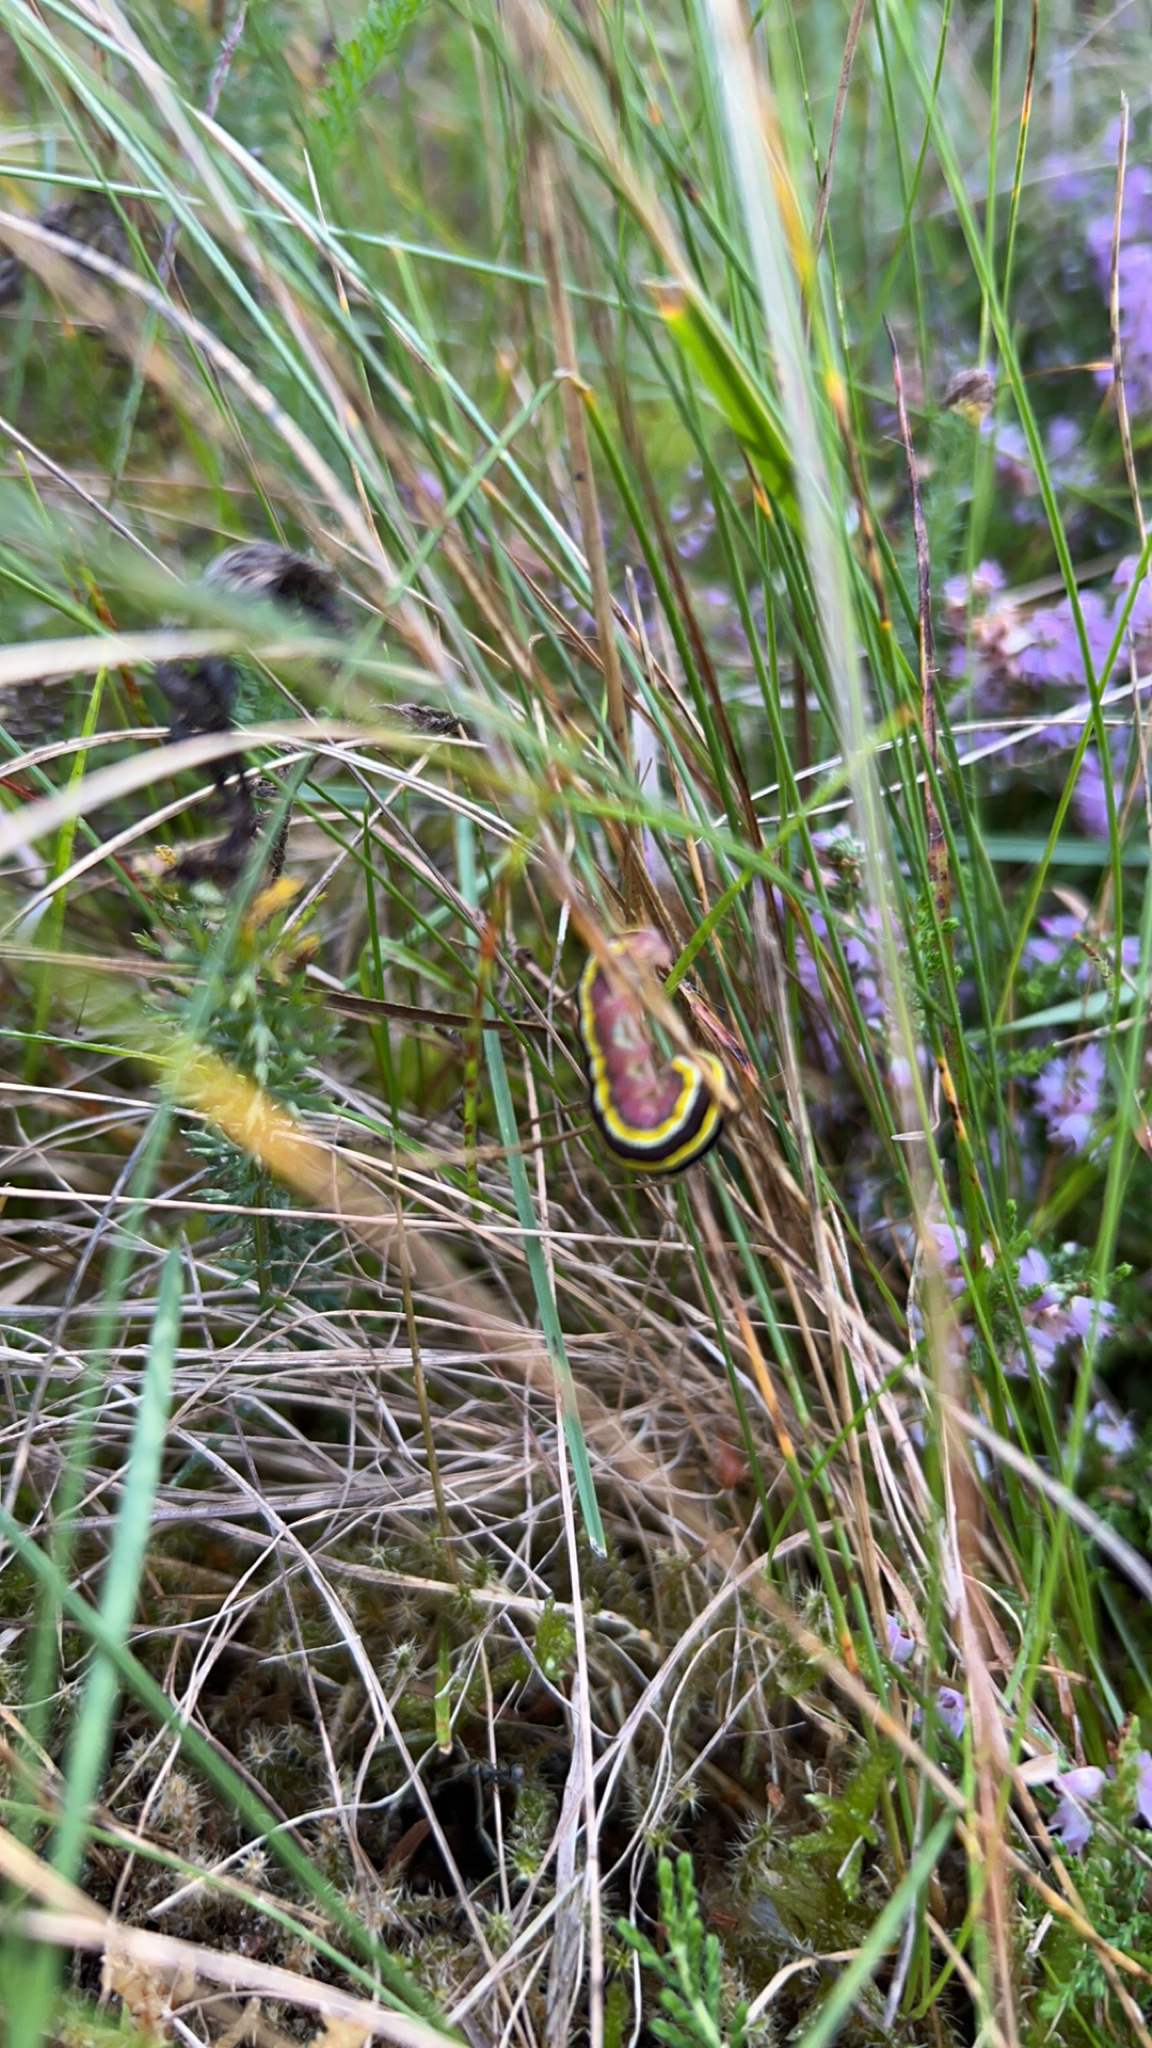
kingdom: Animalia
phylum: Arthropoda
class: Insecta
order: Lepidoptera
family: Noctuidae
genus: Ceramica
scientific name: Ceramica pisi
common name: Broom moth
